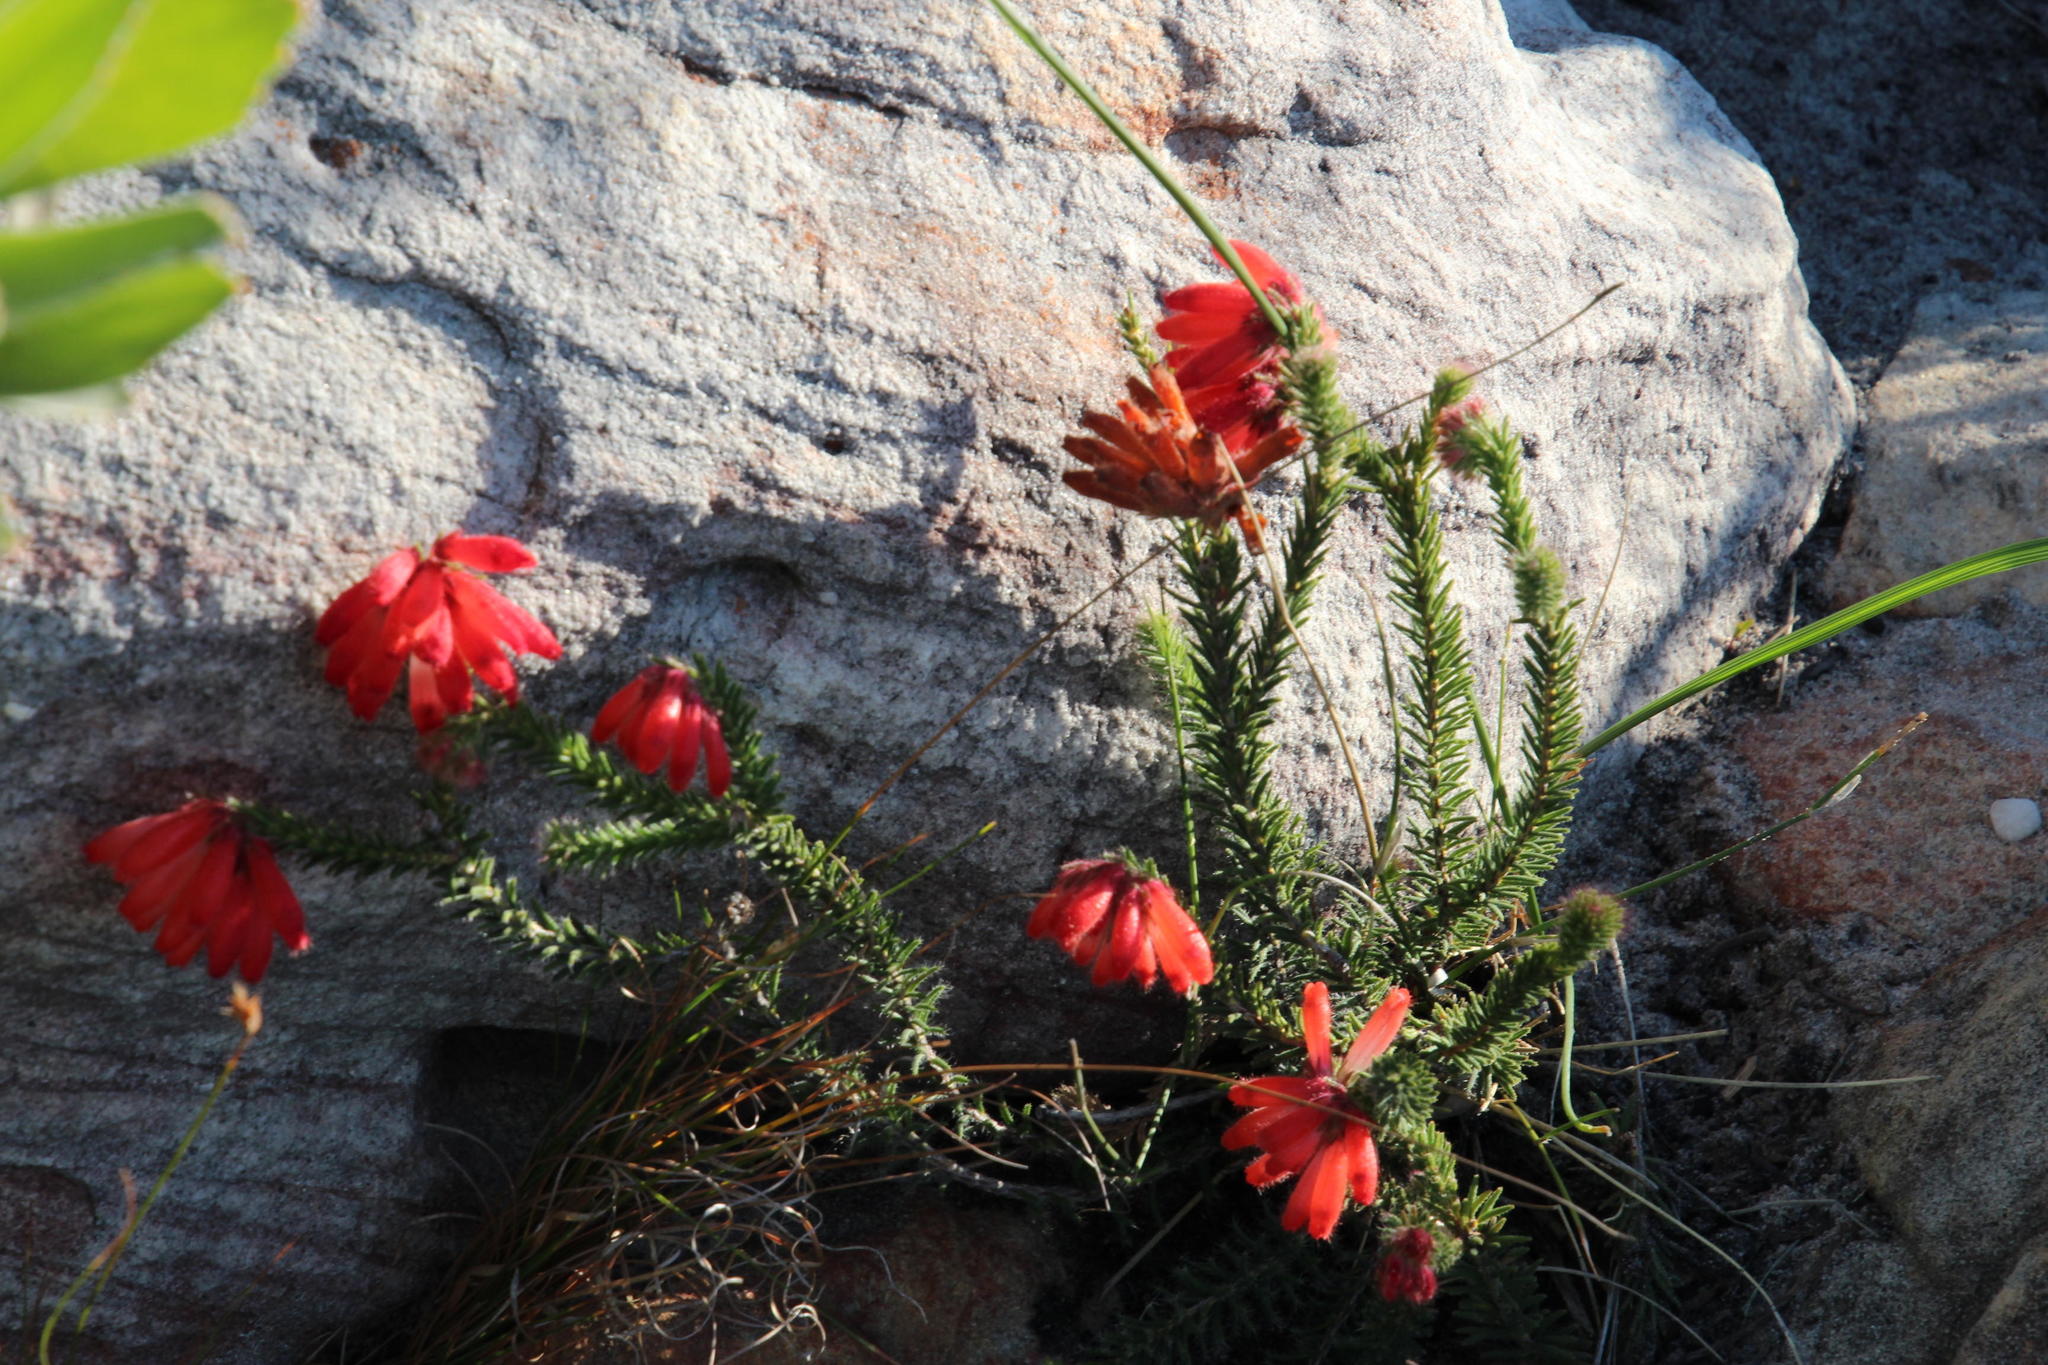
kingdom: Plantae
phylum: Tracheophyta
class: Magnoliopsida
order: Ericales
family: Ericaceae
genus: Erica
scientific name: Erica cerinthoides
